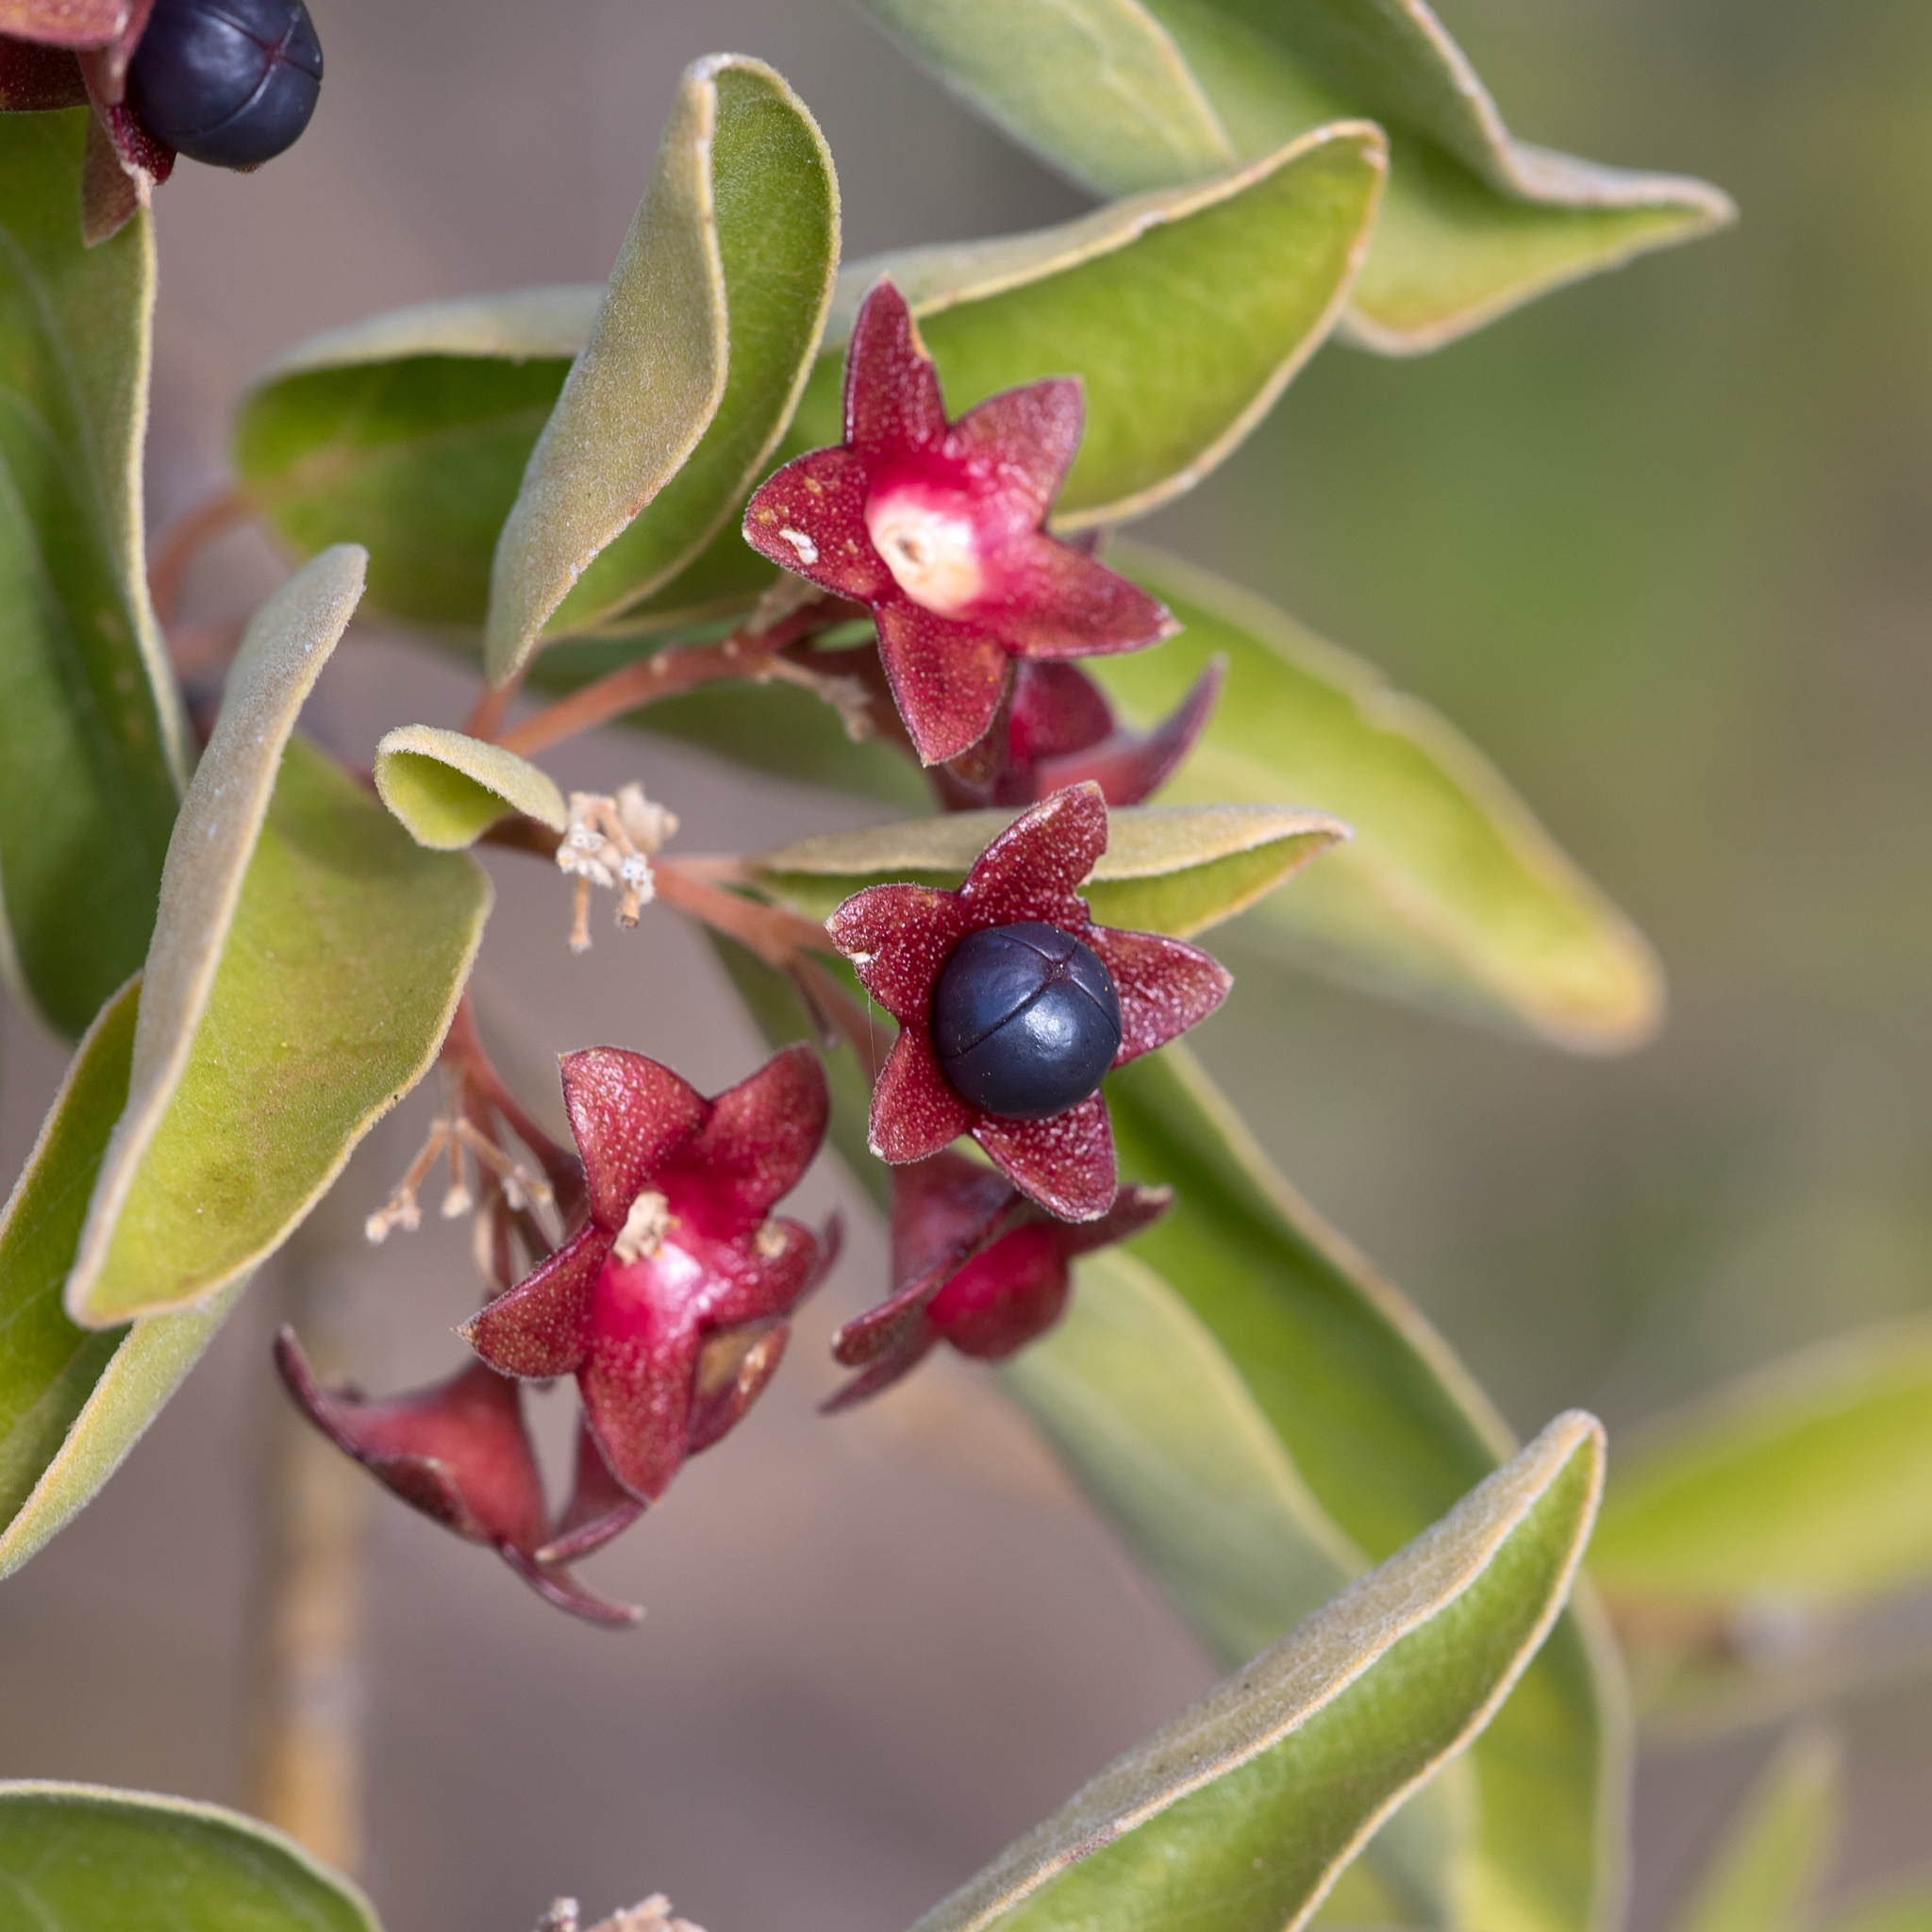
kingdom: Plantae
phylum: Tracheophyta
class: Magnoliopsida
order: Lamiales
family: Lamiaceae
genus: Clerodendrum
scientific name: Clerodendrum floribundum
